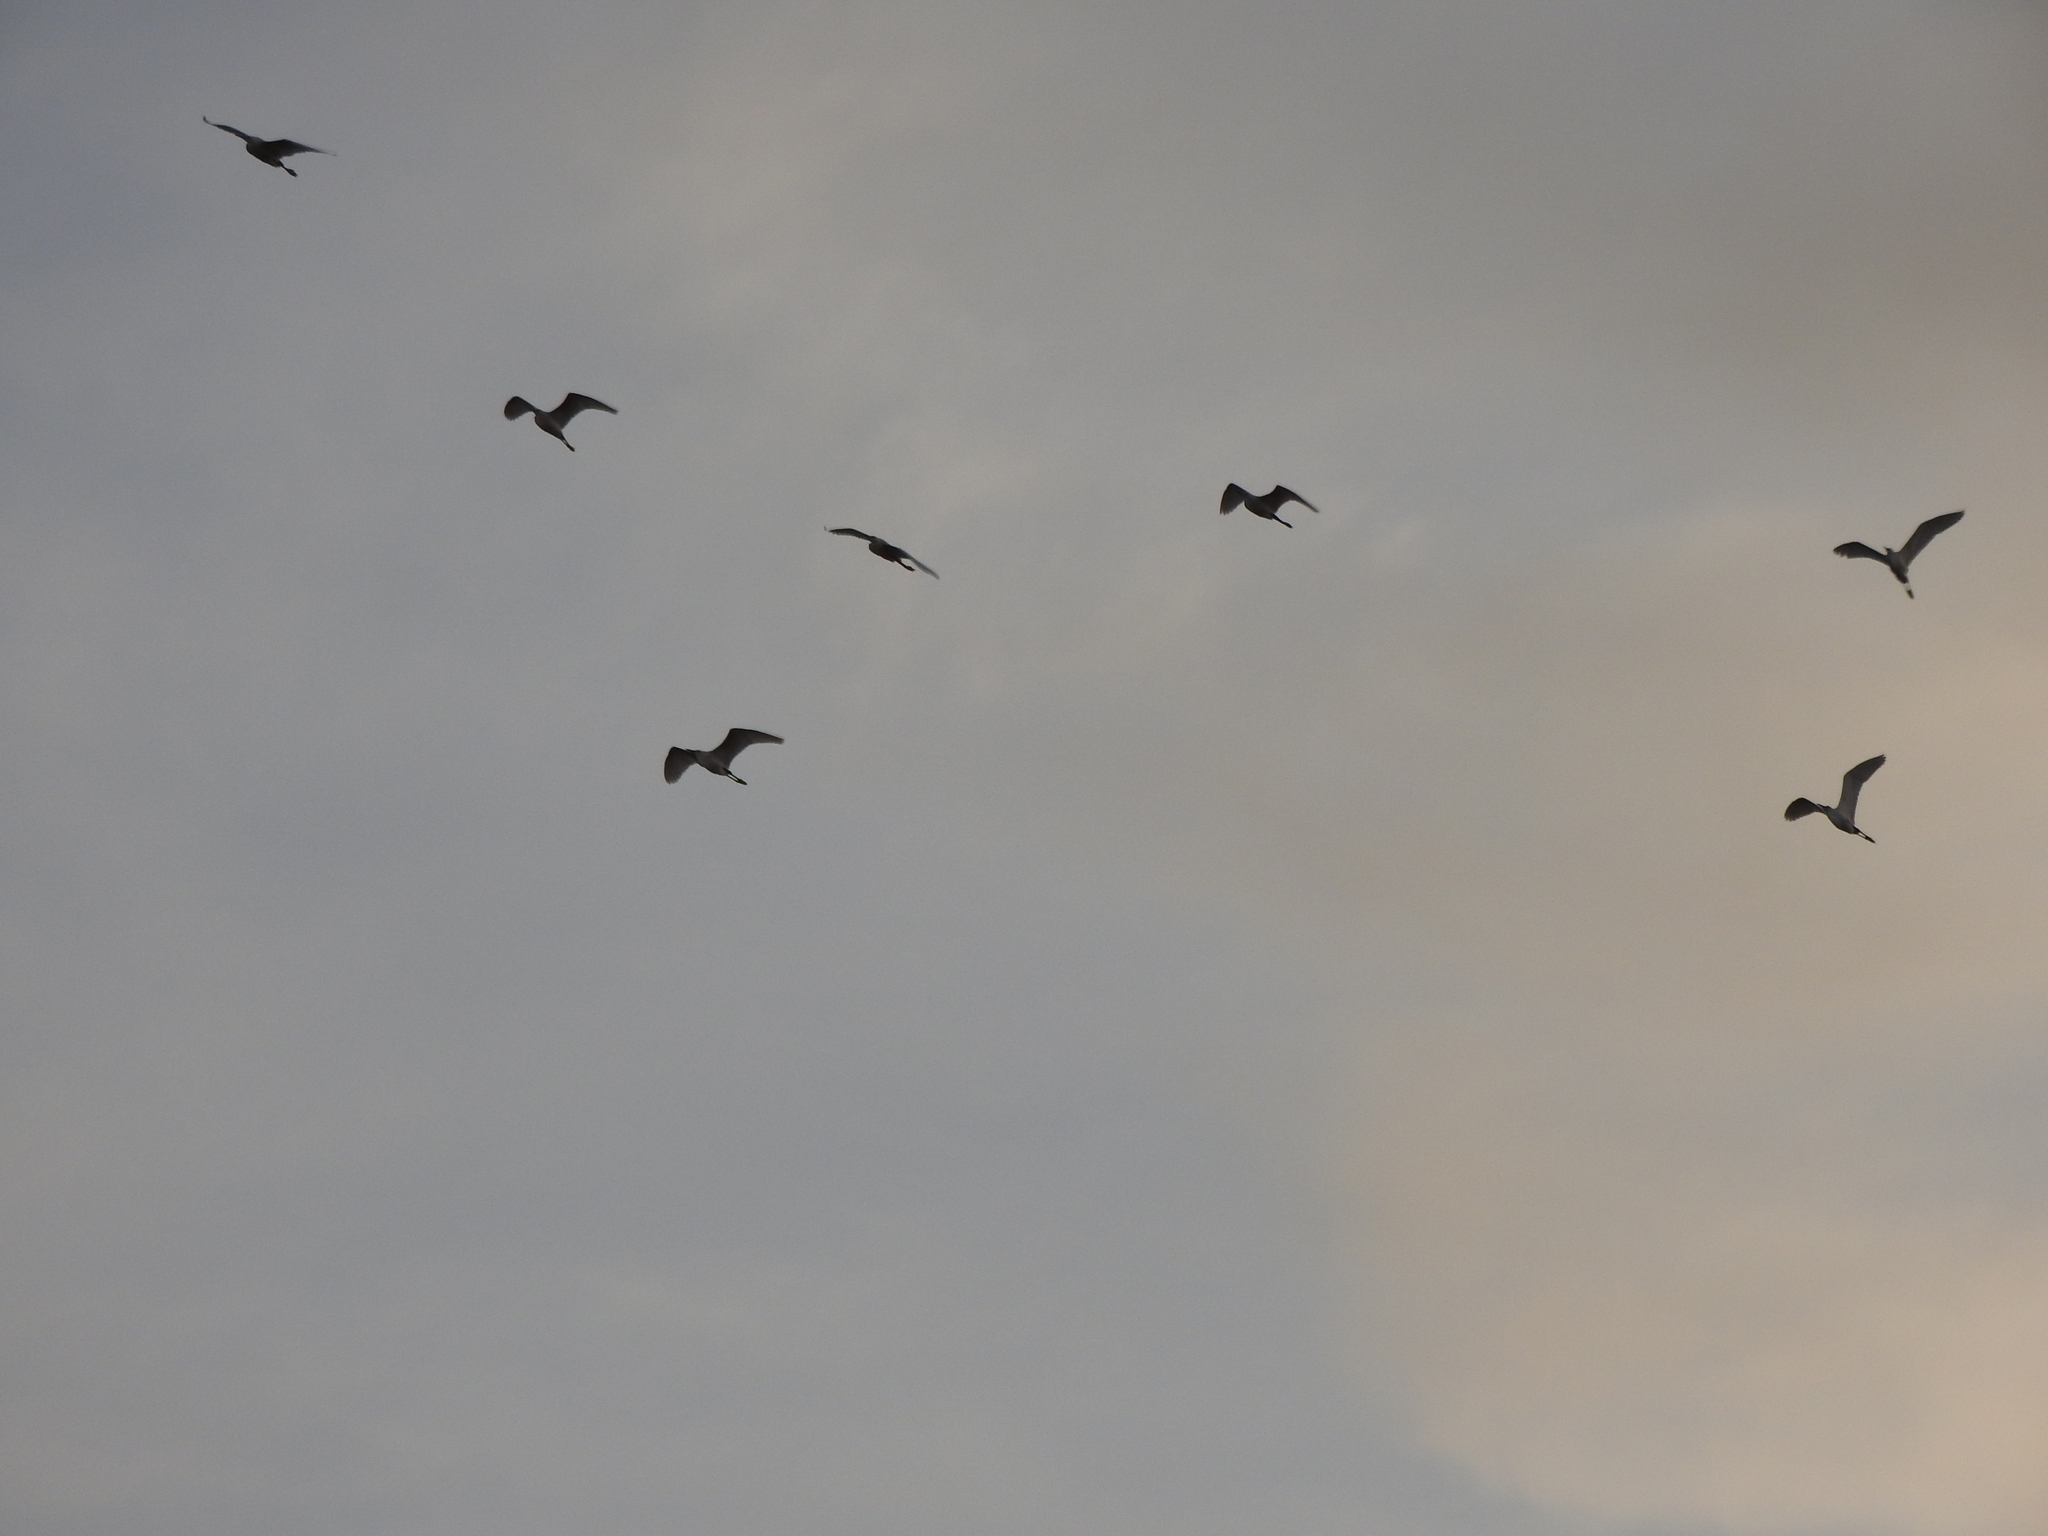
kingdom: Animalia
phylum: Chordata
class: Aves
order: Pelecaniformes
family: Ardeidae
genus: Bubulcus
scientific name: Bubulcus ibis
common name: Cattle egret
